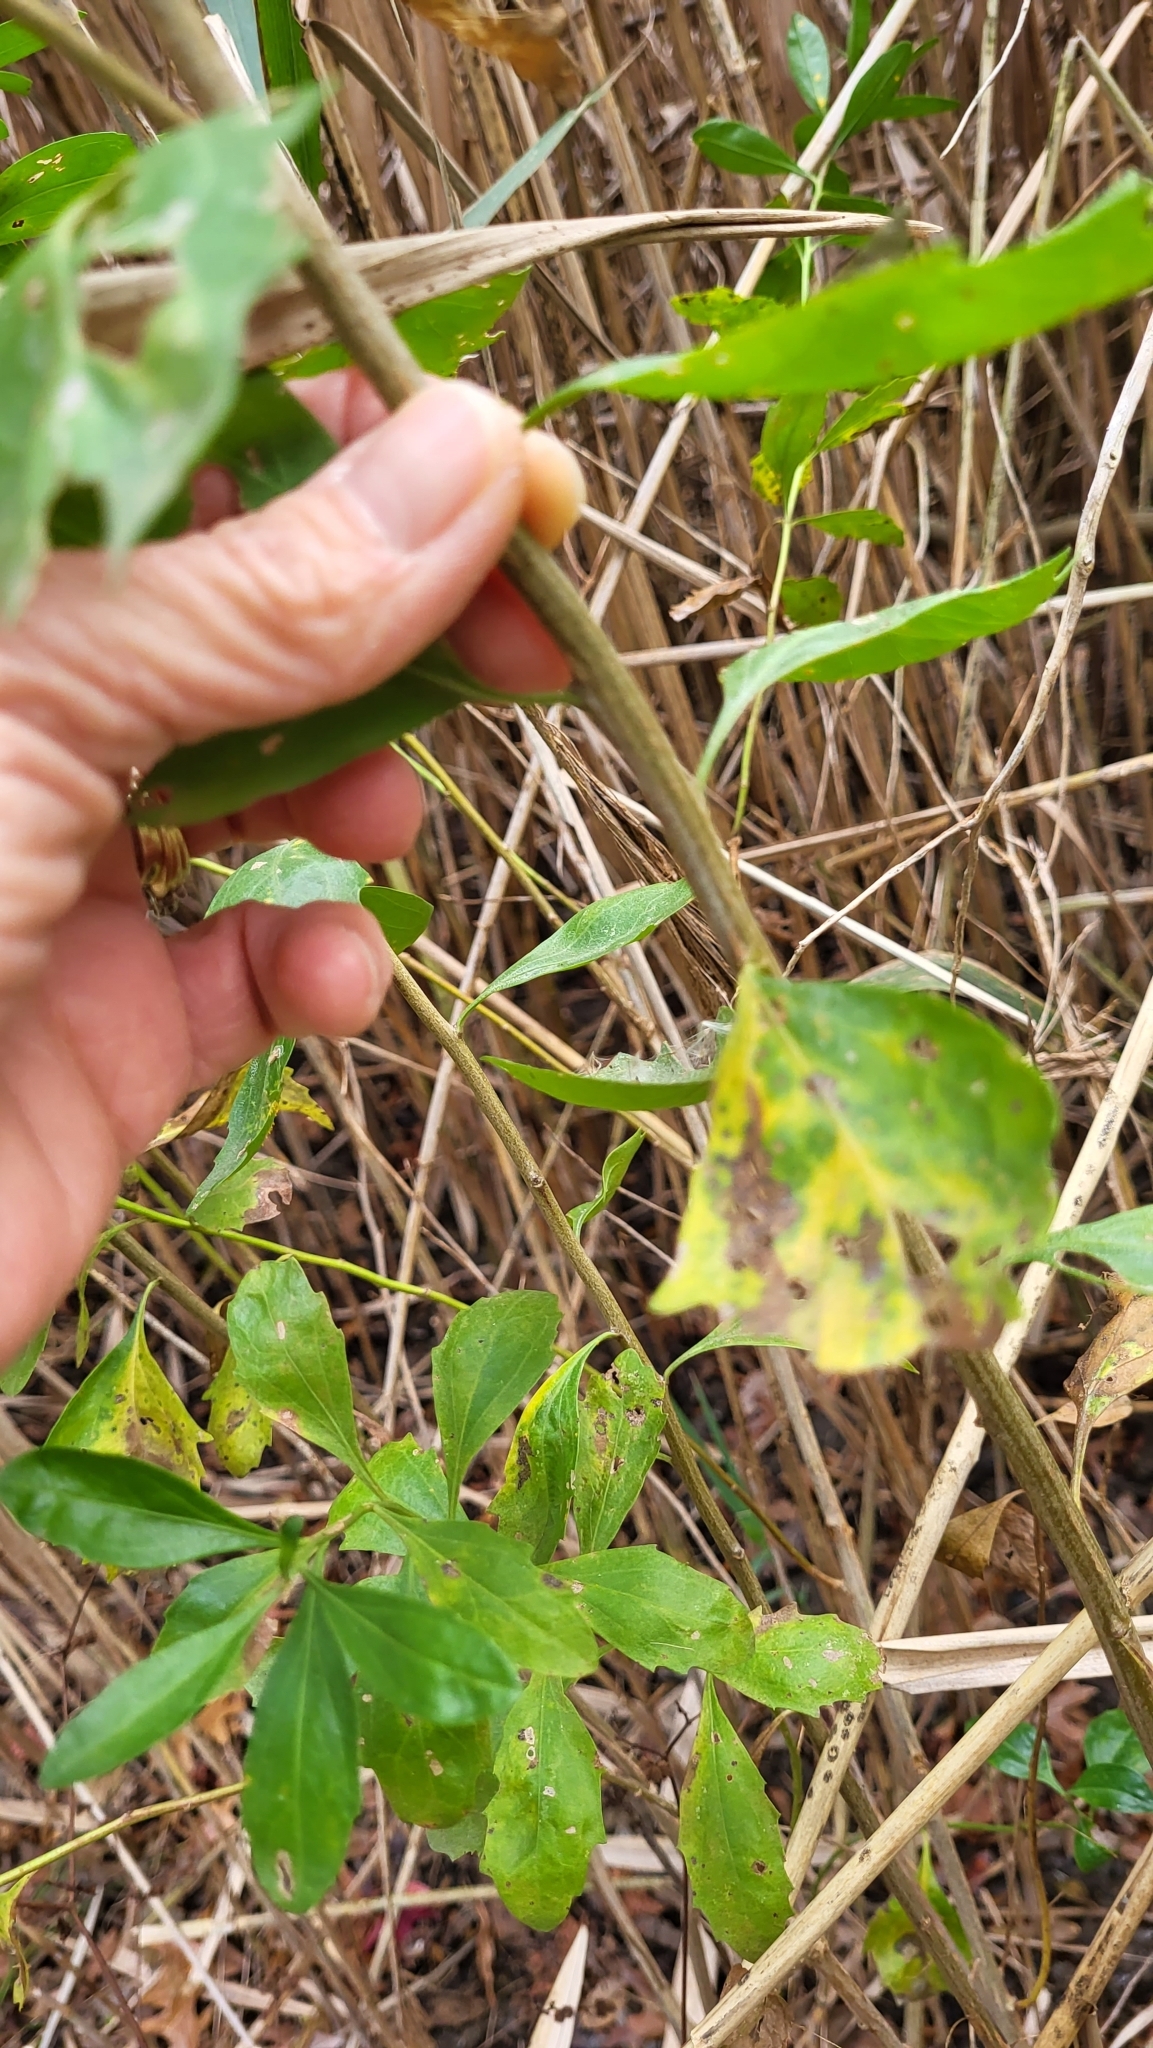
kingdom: Plantae
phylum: Tracheophyta
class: Magnoliopsida
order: Asterales
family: Asteraceae
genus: Baccharis
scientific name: Baccharis halimifolia
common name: Eastern baccharis
